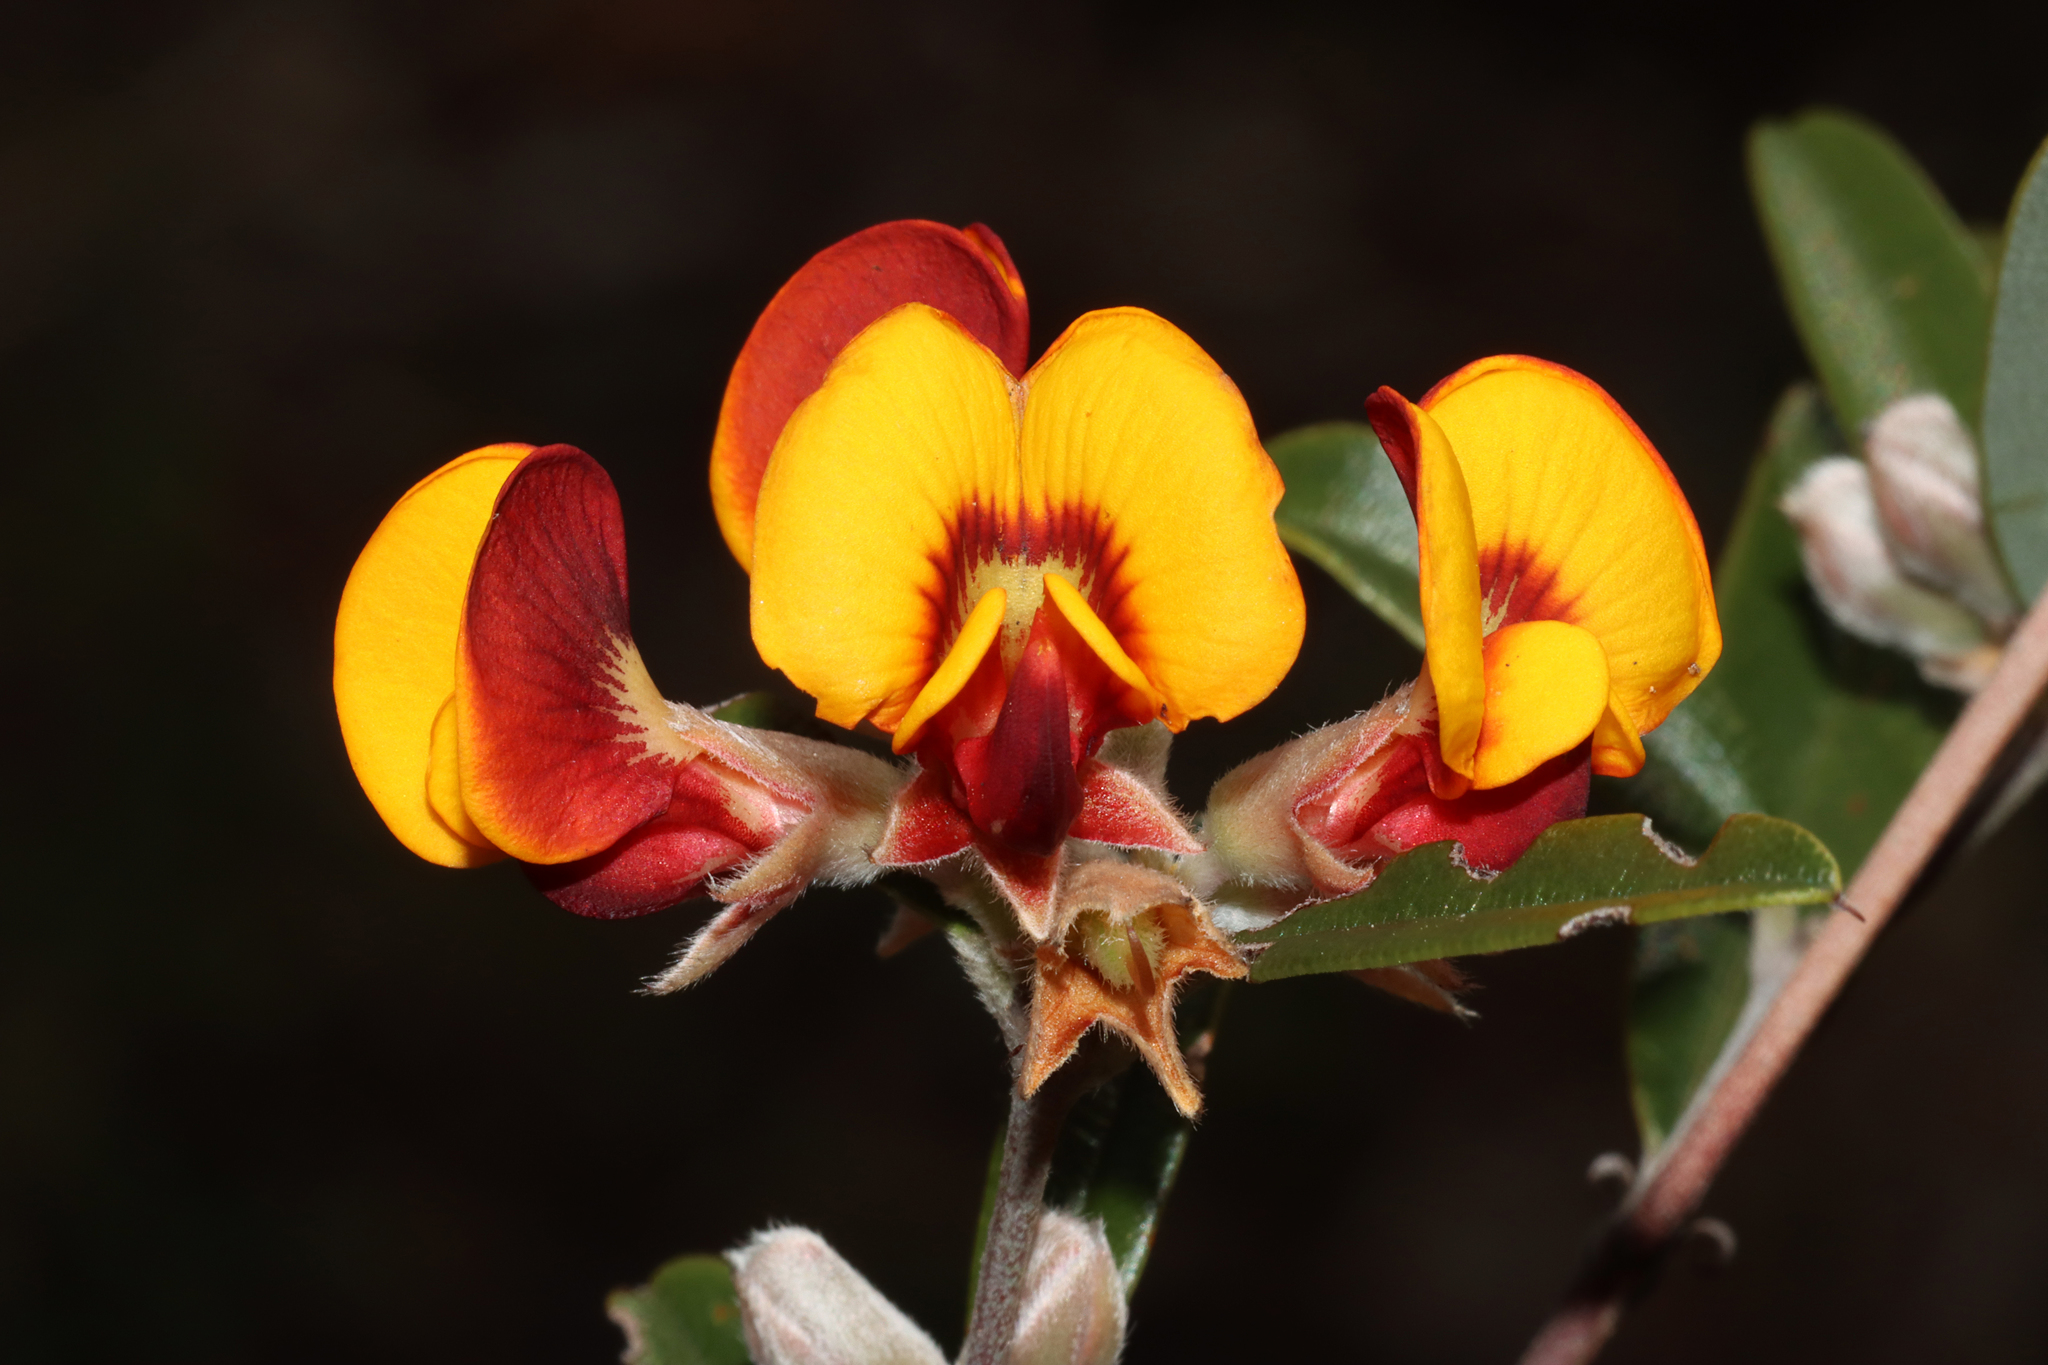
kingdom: Plantae
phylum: Tracheophyta
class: Magnoliopsida
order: Fabales
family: Fabaceae
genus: Gastrolobium
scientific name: Gastrolobium capitatum
